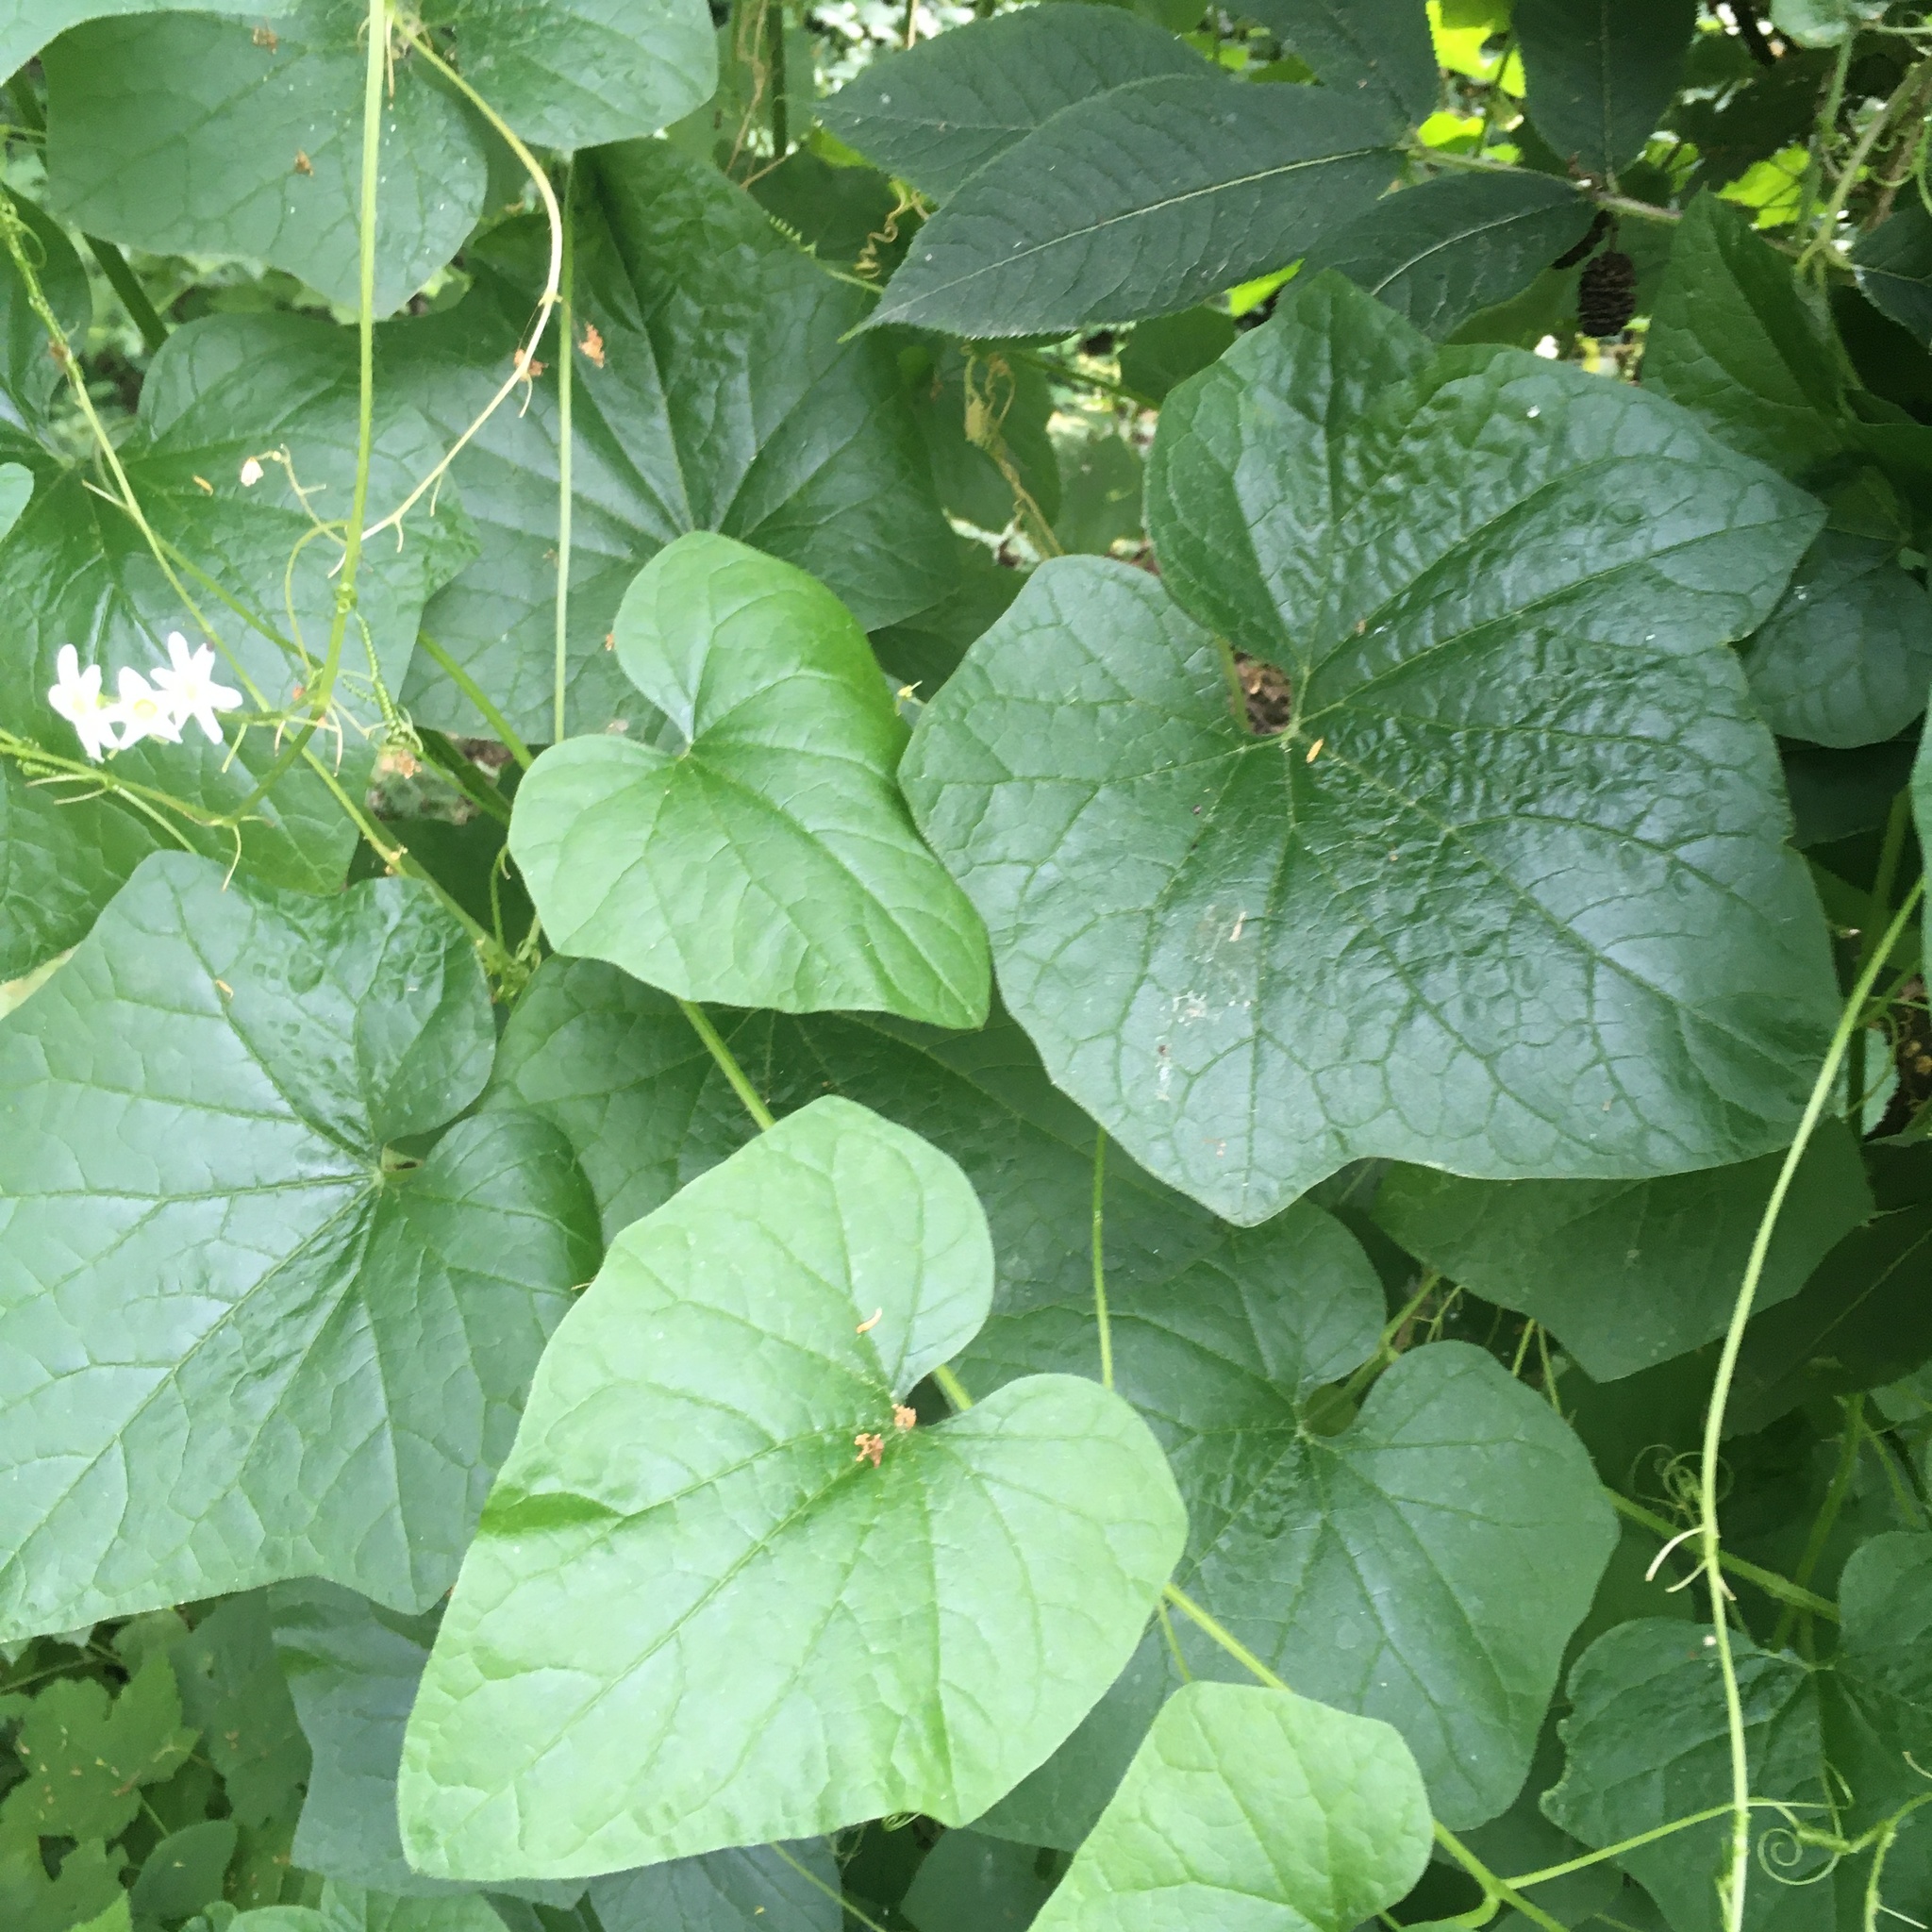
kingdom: Plantae
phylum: Tracheophyta
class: Magnoliopsida
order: Cucurbitales
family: Cucurbitaceae
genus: Marah
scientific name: Marah oregana
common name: Coastal manroot
